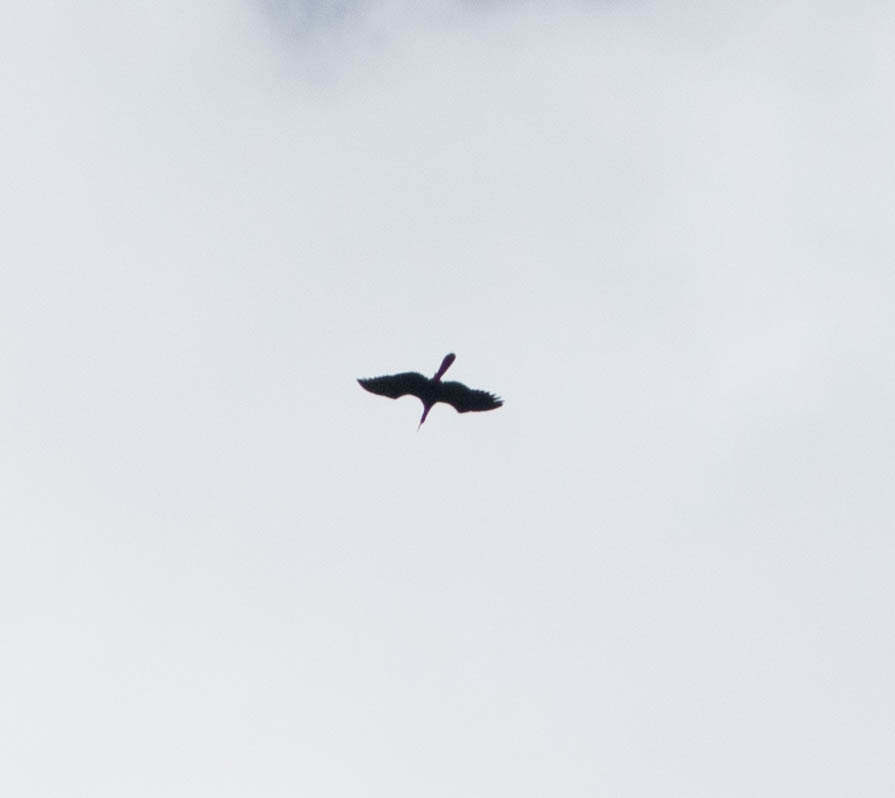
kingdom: Animalia
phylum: Chordata
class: Aves
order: Suliformes
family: Anhingidae
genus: Anhinga
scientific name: Anhinga anhinga
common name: Anhinga
